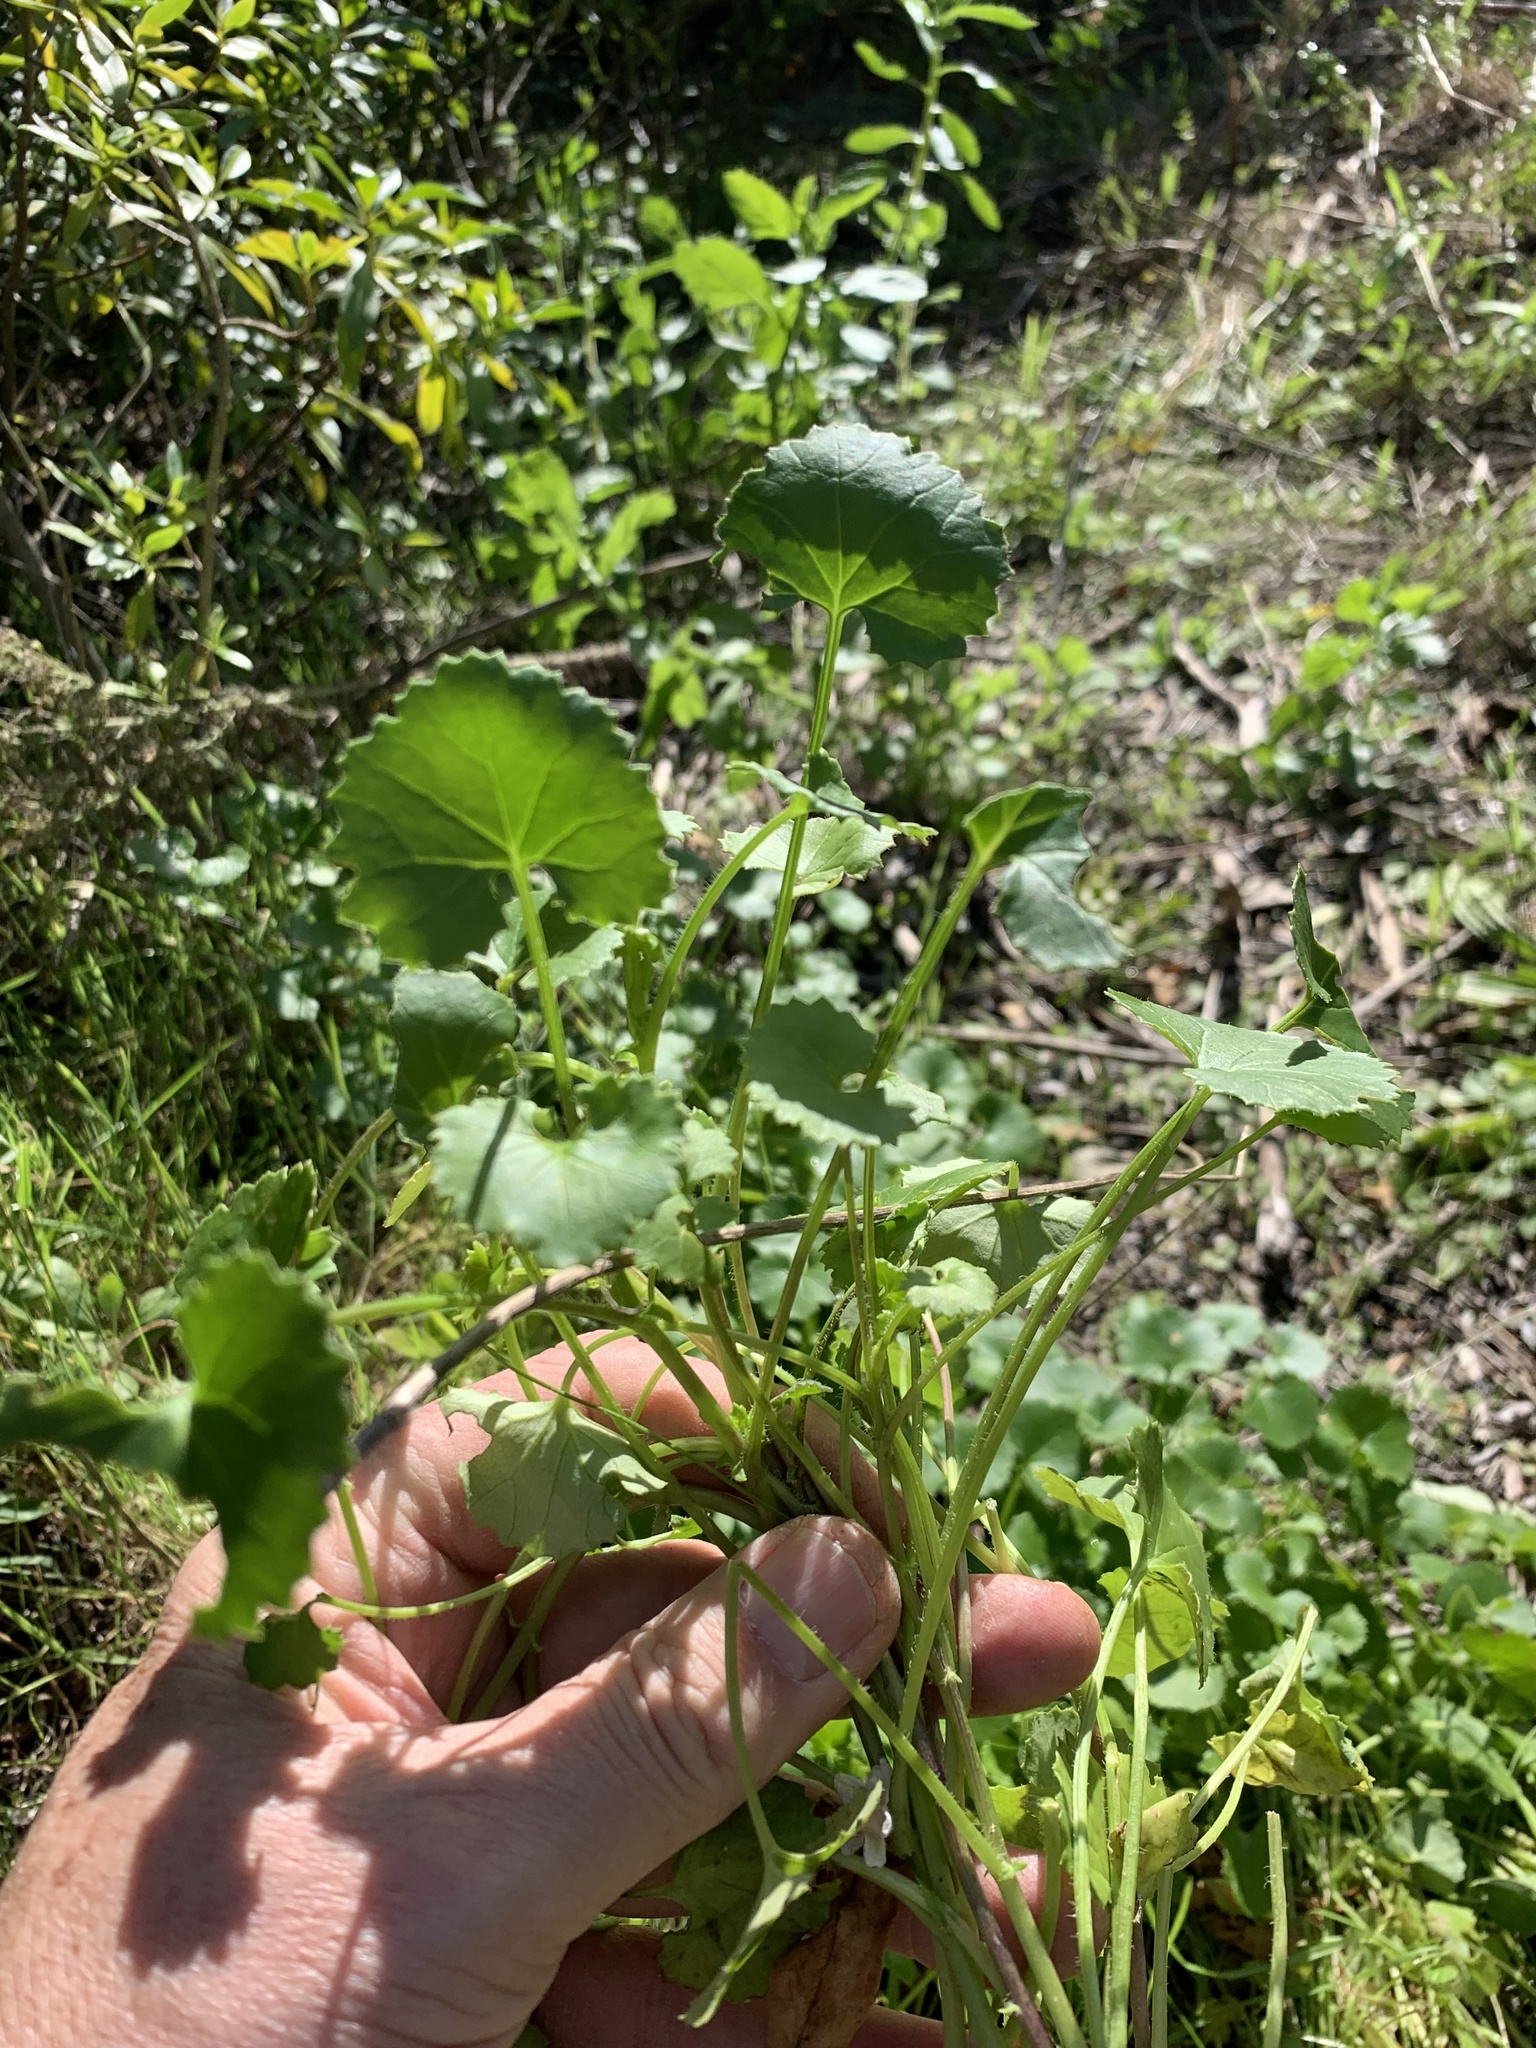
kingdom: Plantae
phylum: Tracheophyta
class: Magnoliopsida
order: Apiales
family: Apiaceae
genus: Centella
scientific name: Centella asiatica
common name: Spadeleaf
